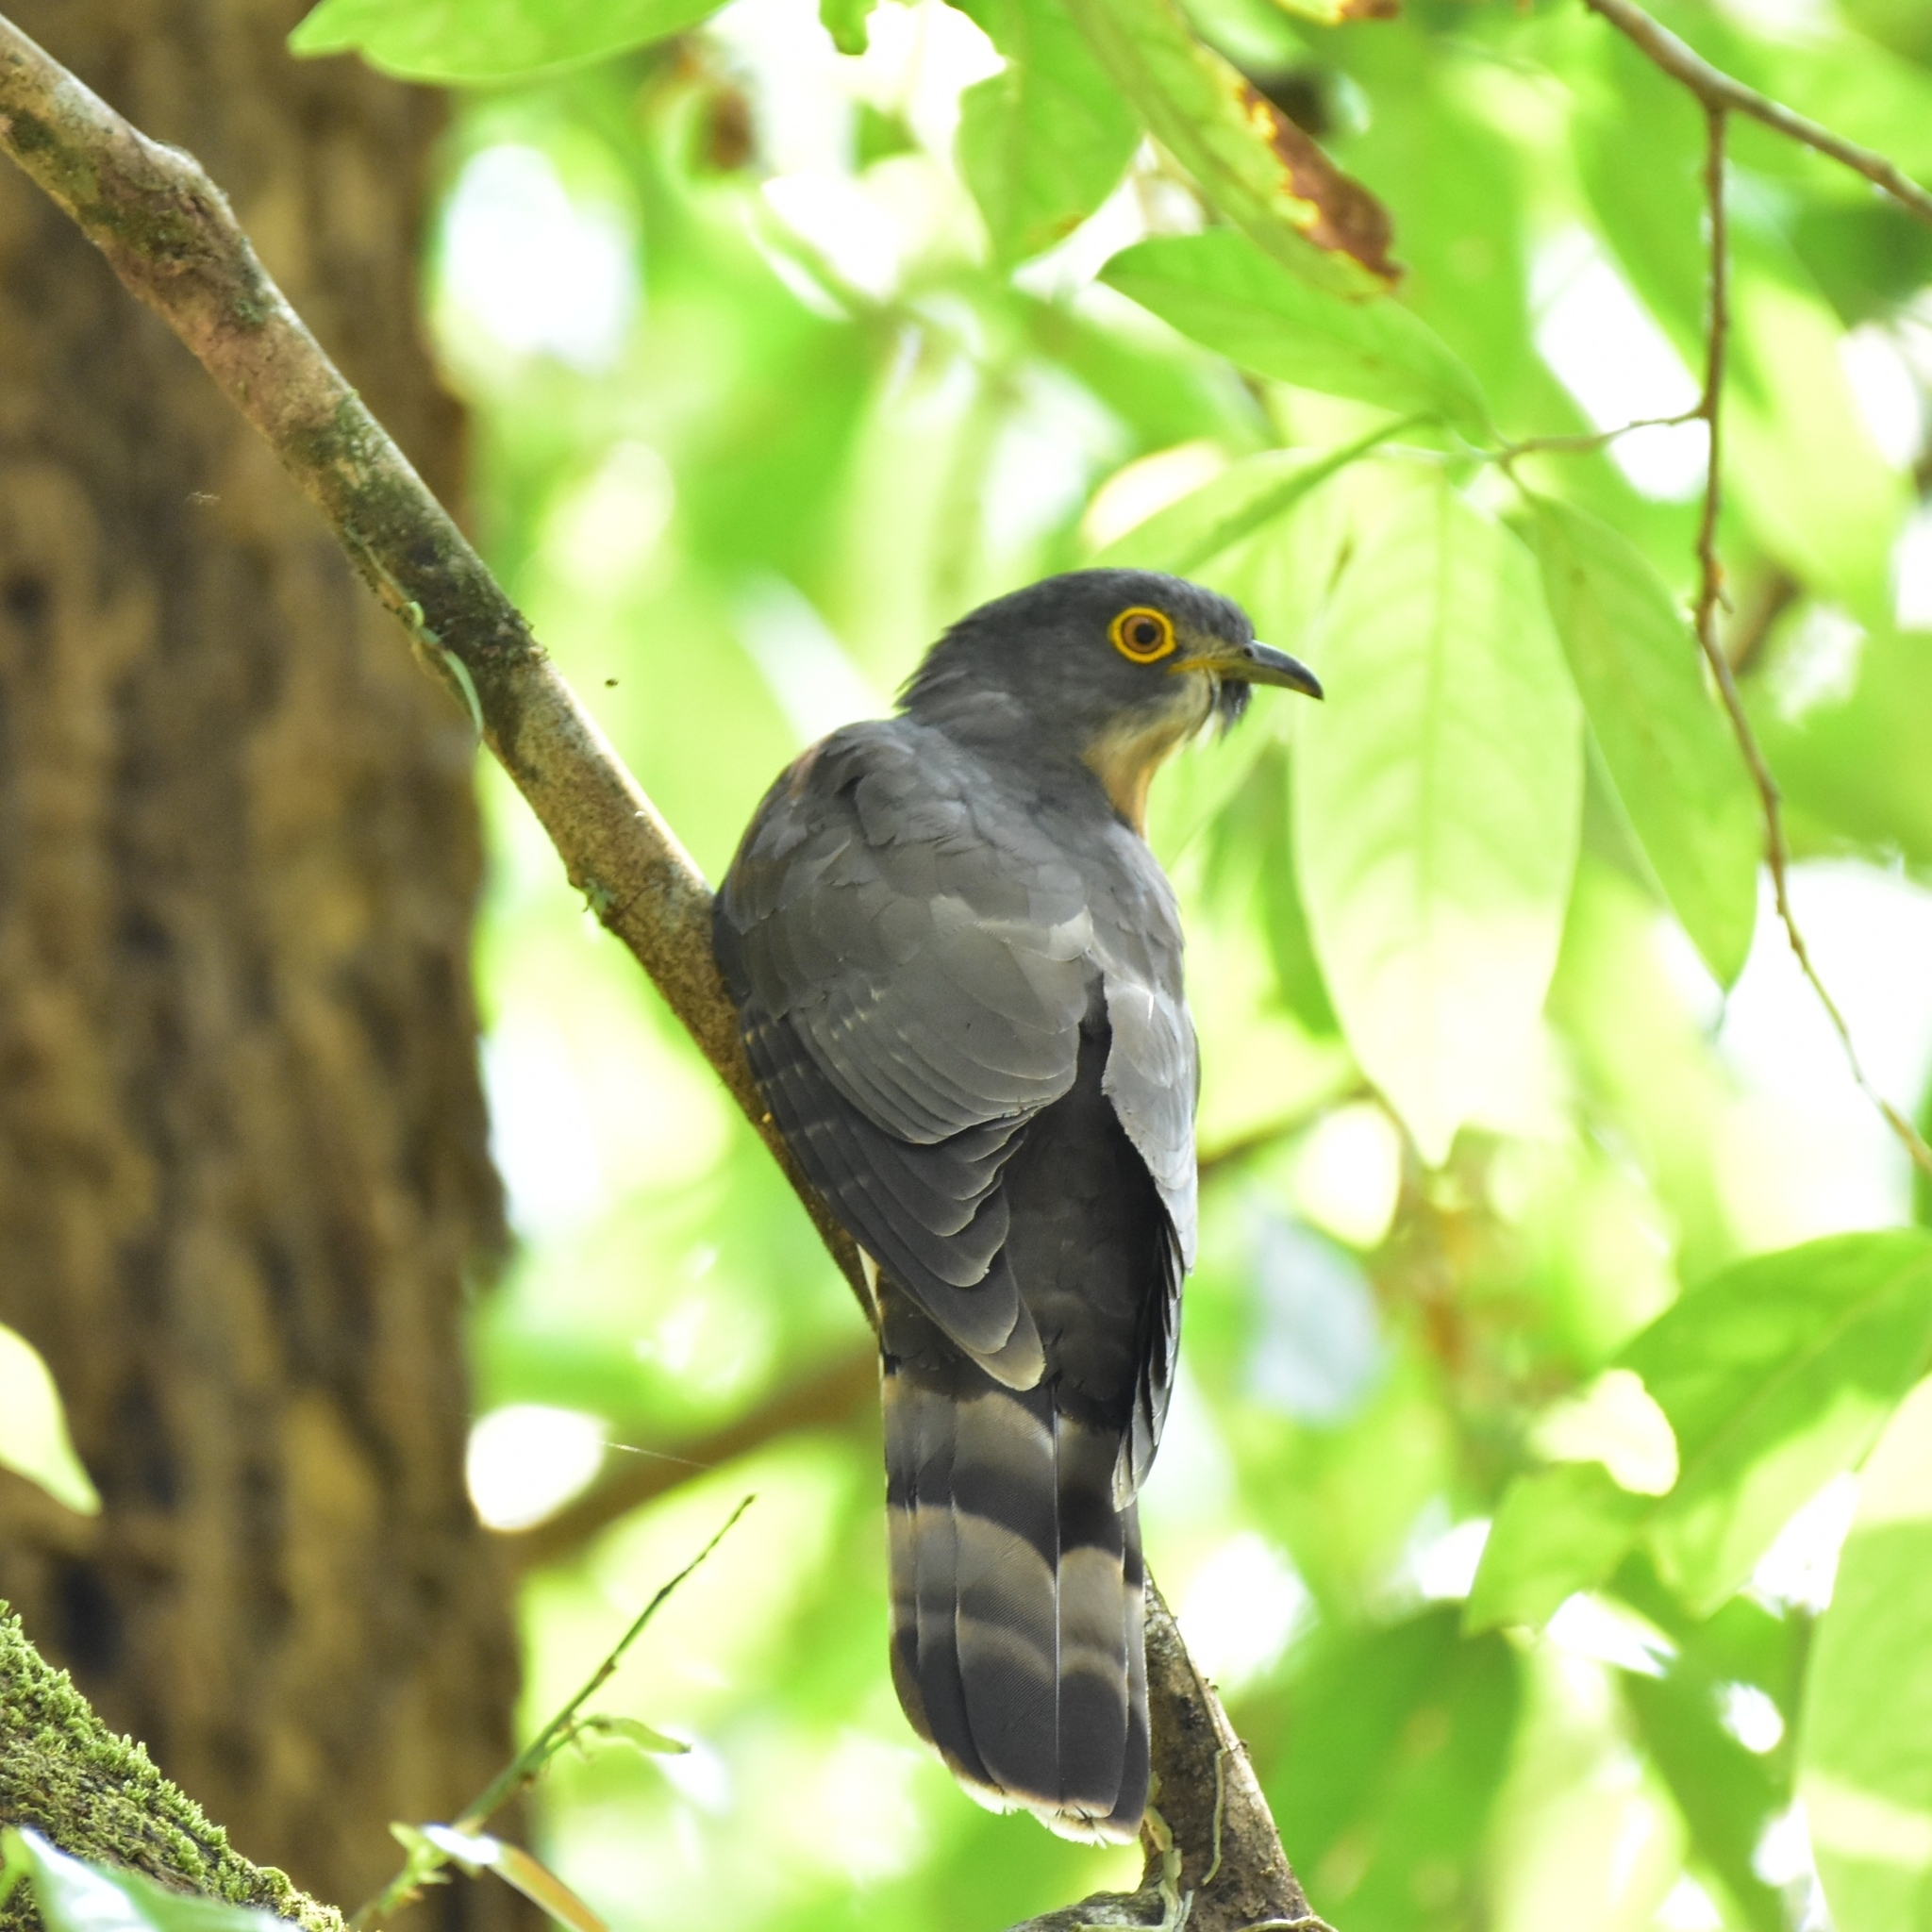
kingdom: Animalia
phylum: Chordata
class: Aves
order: Cuculiformes
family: Cuculidae
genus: Cuculus
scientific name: Cuculus varius
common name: Common hawk cuckoo
